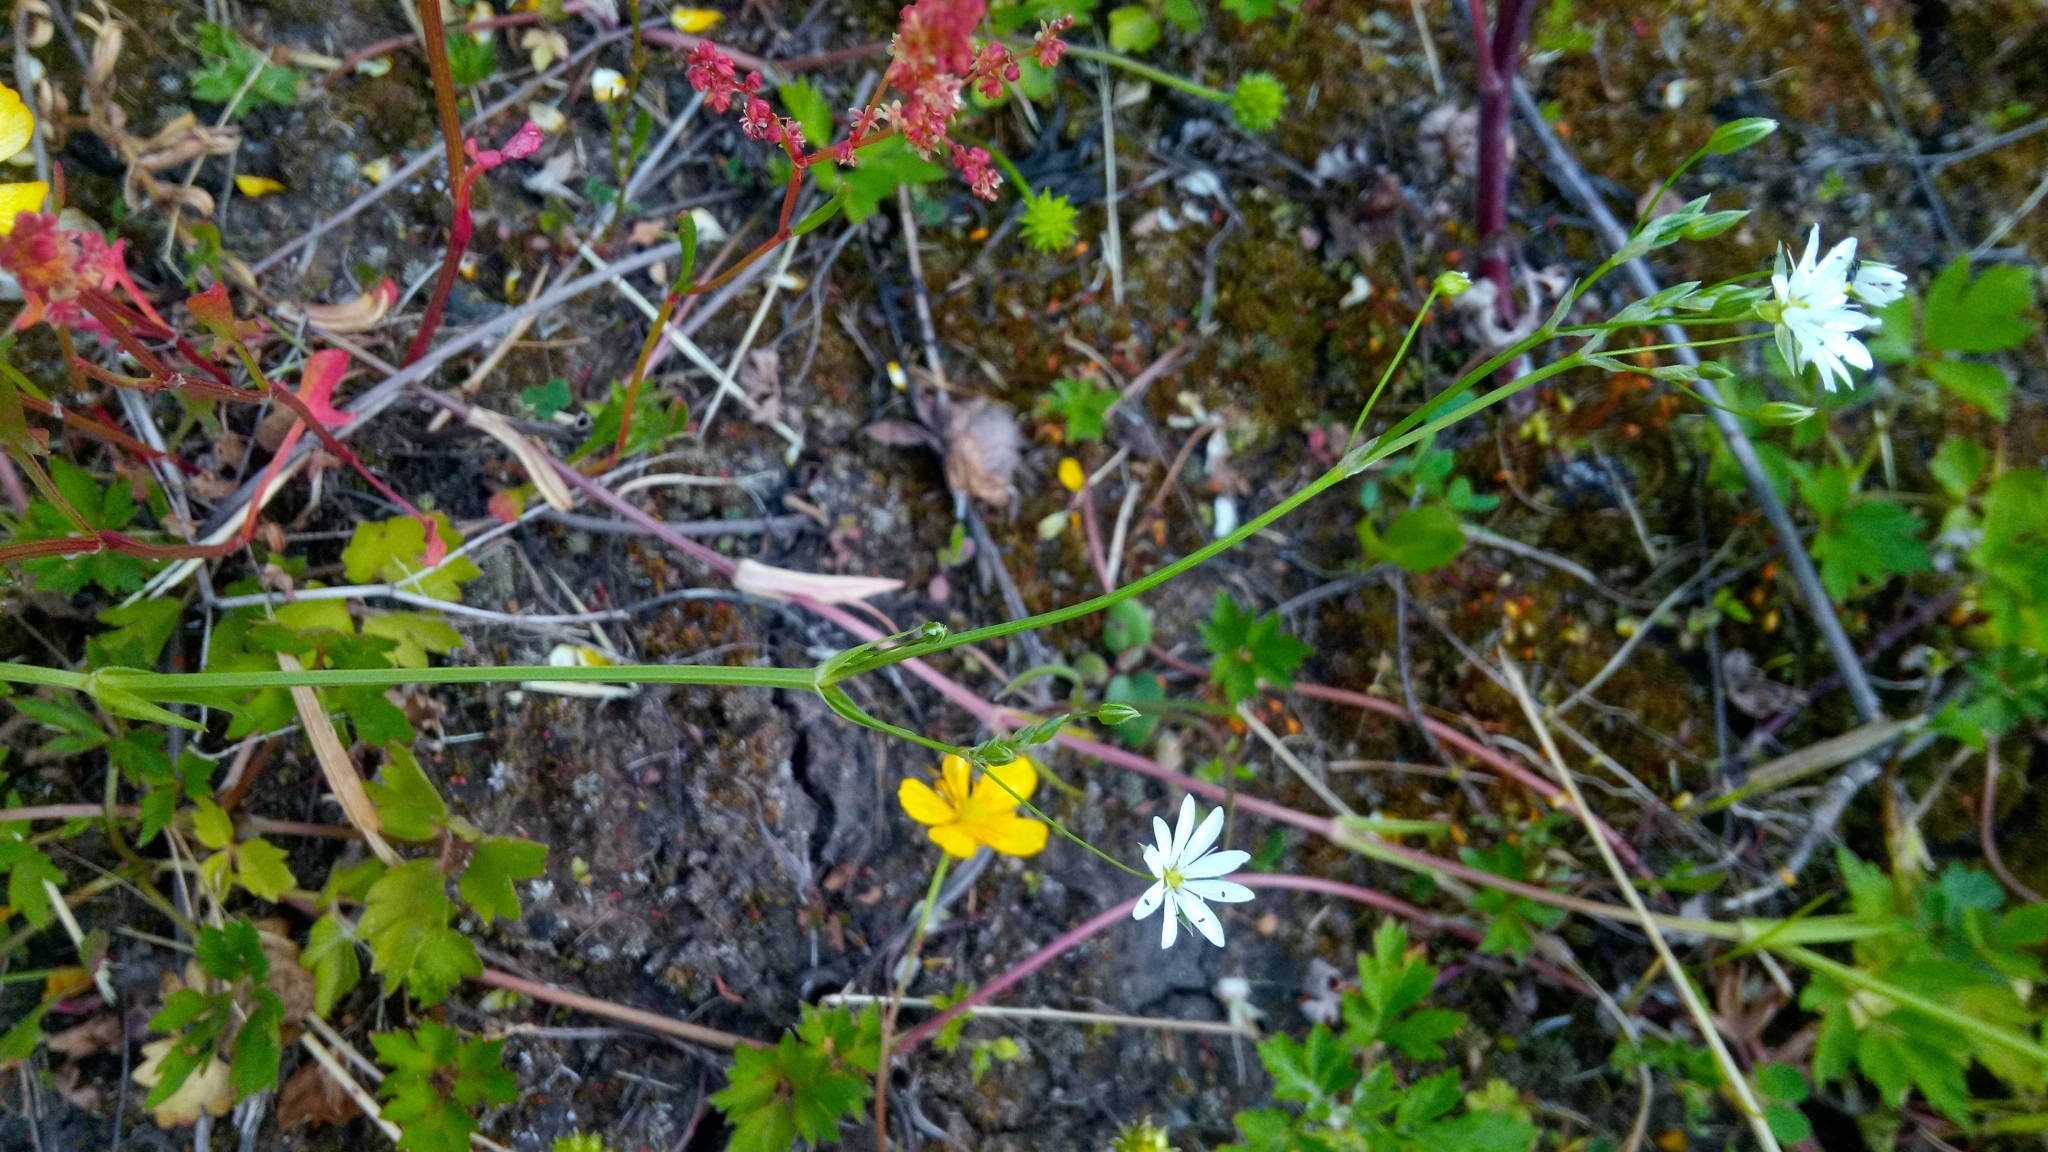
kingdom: Plantae
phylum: Tracheophyta
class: Magnoliopsida
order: Caryophyllales
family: Caryophyllaceae
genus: Stellaria
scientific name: Stellaria graminea
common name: Grass-like starwort
